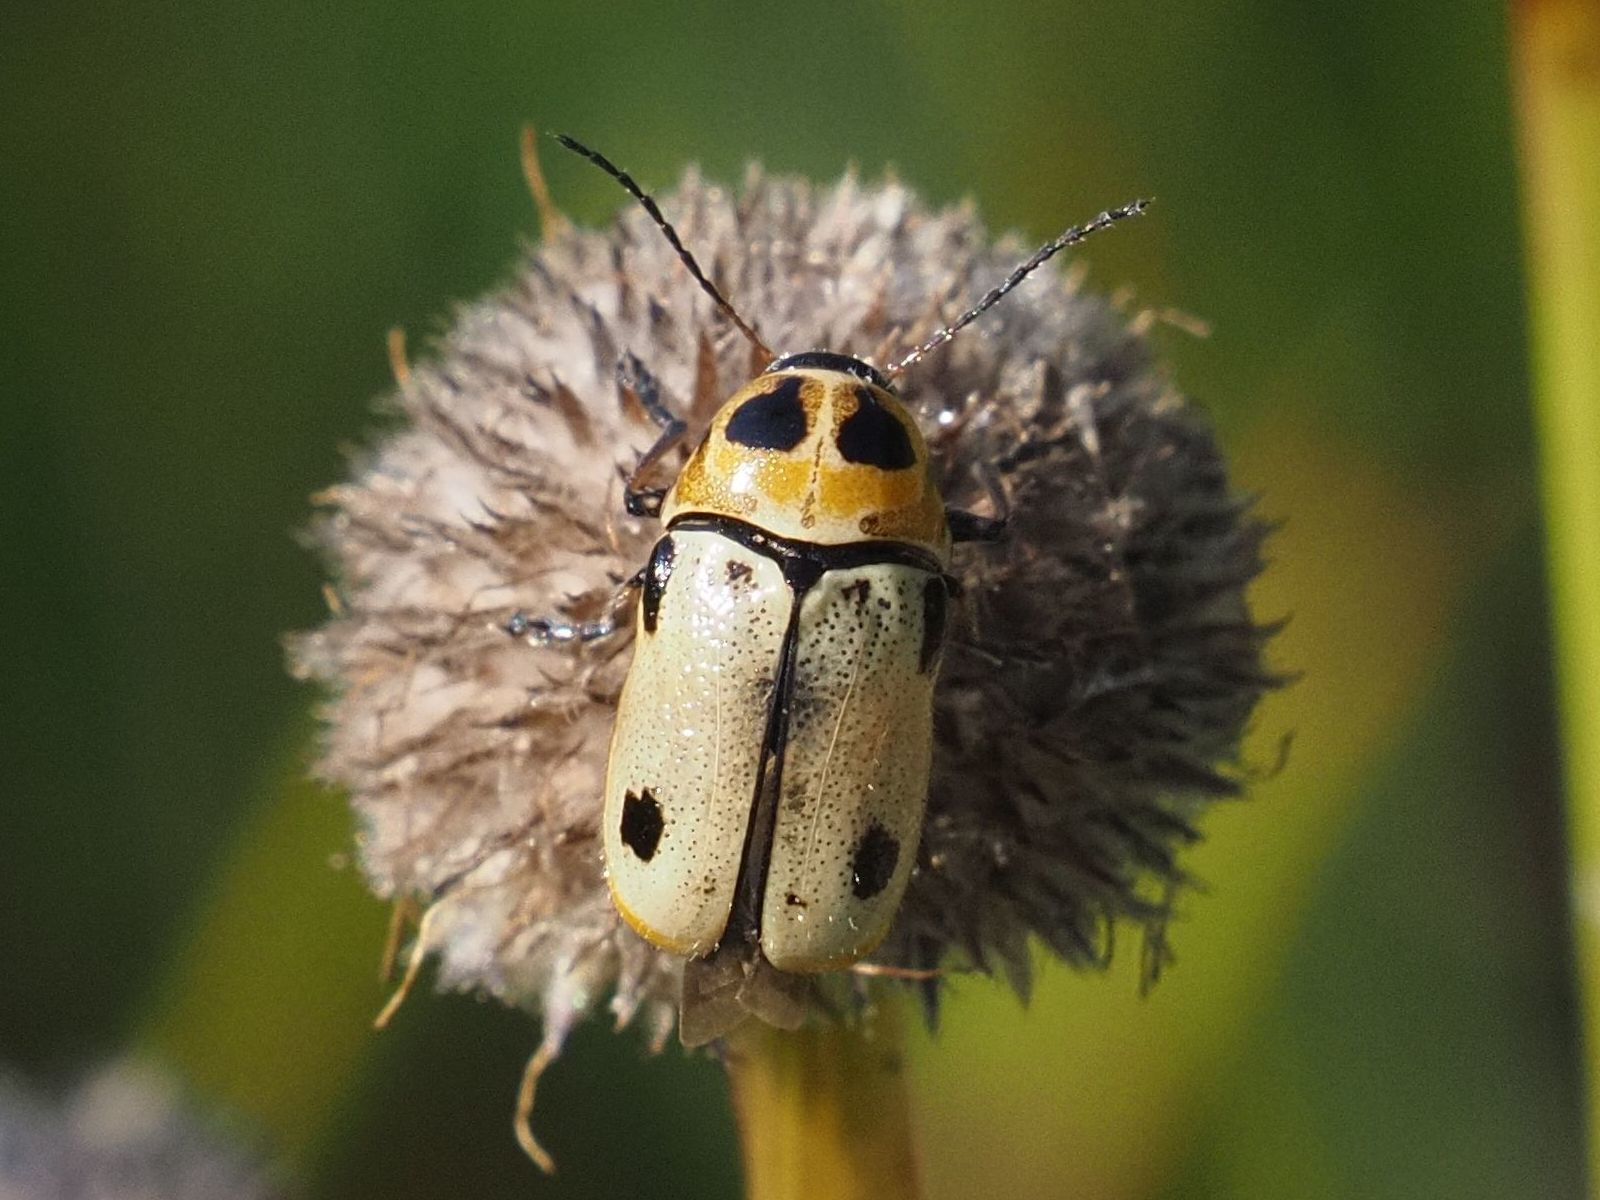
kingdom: Animalia
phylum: Arthropoda
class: Insecta
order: Coleoptera
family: Chrysomelidae
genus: Cryptocephalus
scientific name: Cryptocephalus quatuordecimmaculatus
